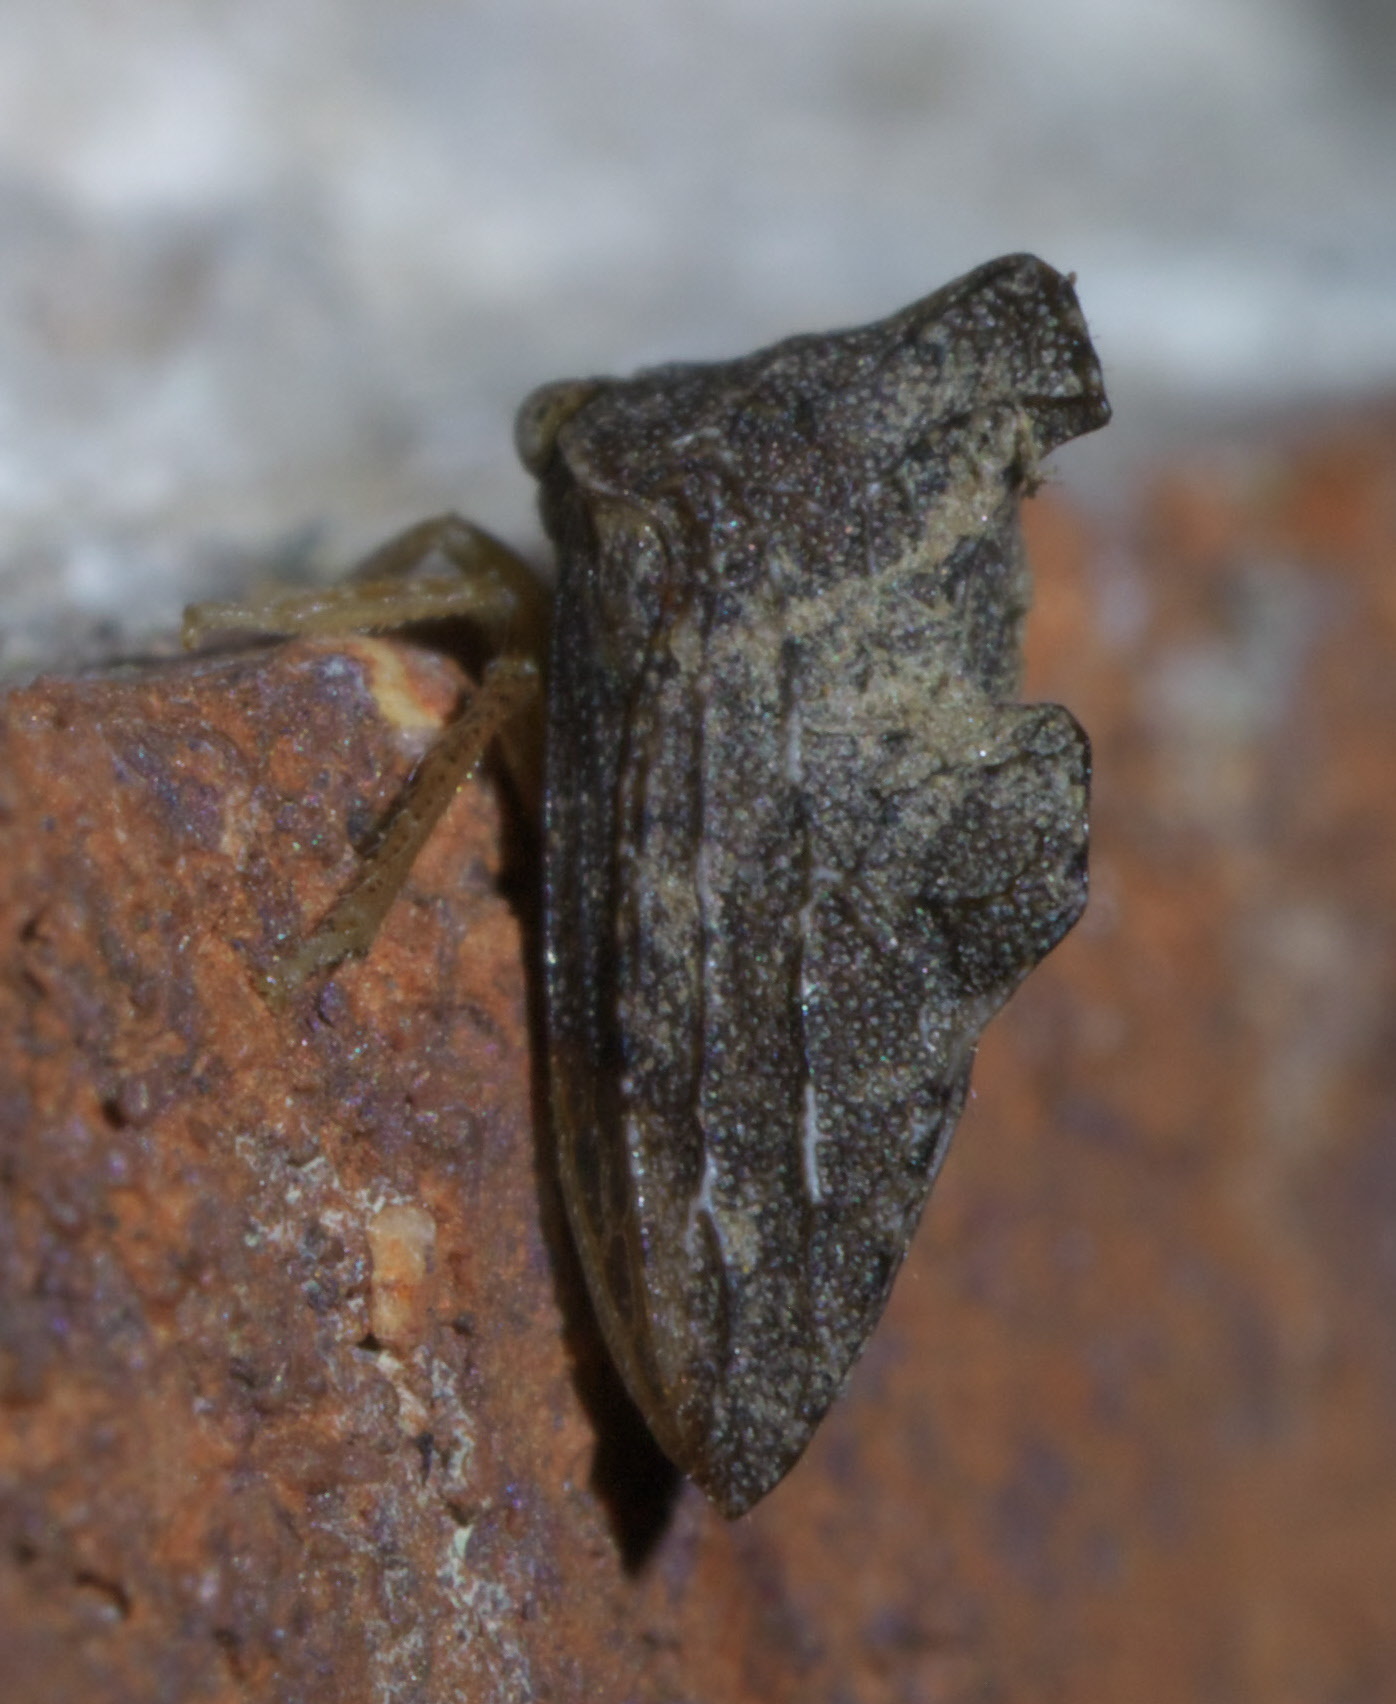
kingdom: Animalia
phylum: Arthropoda
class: Insecta
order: Hemiptera
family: Membracidae
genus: Entylia
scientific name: Entylia carinata
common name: Keeled treehopper
